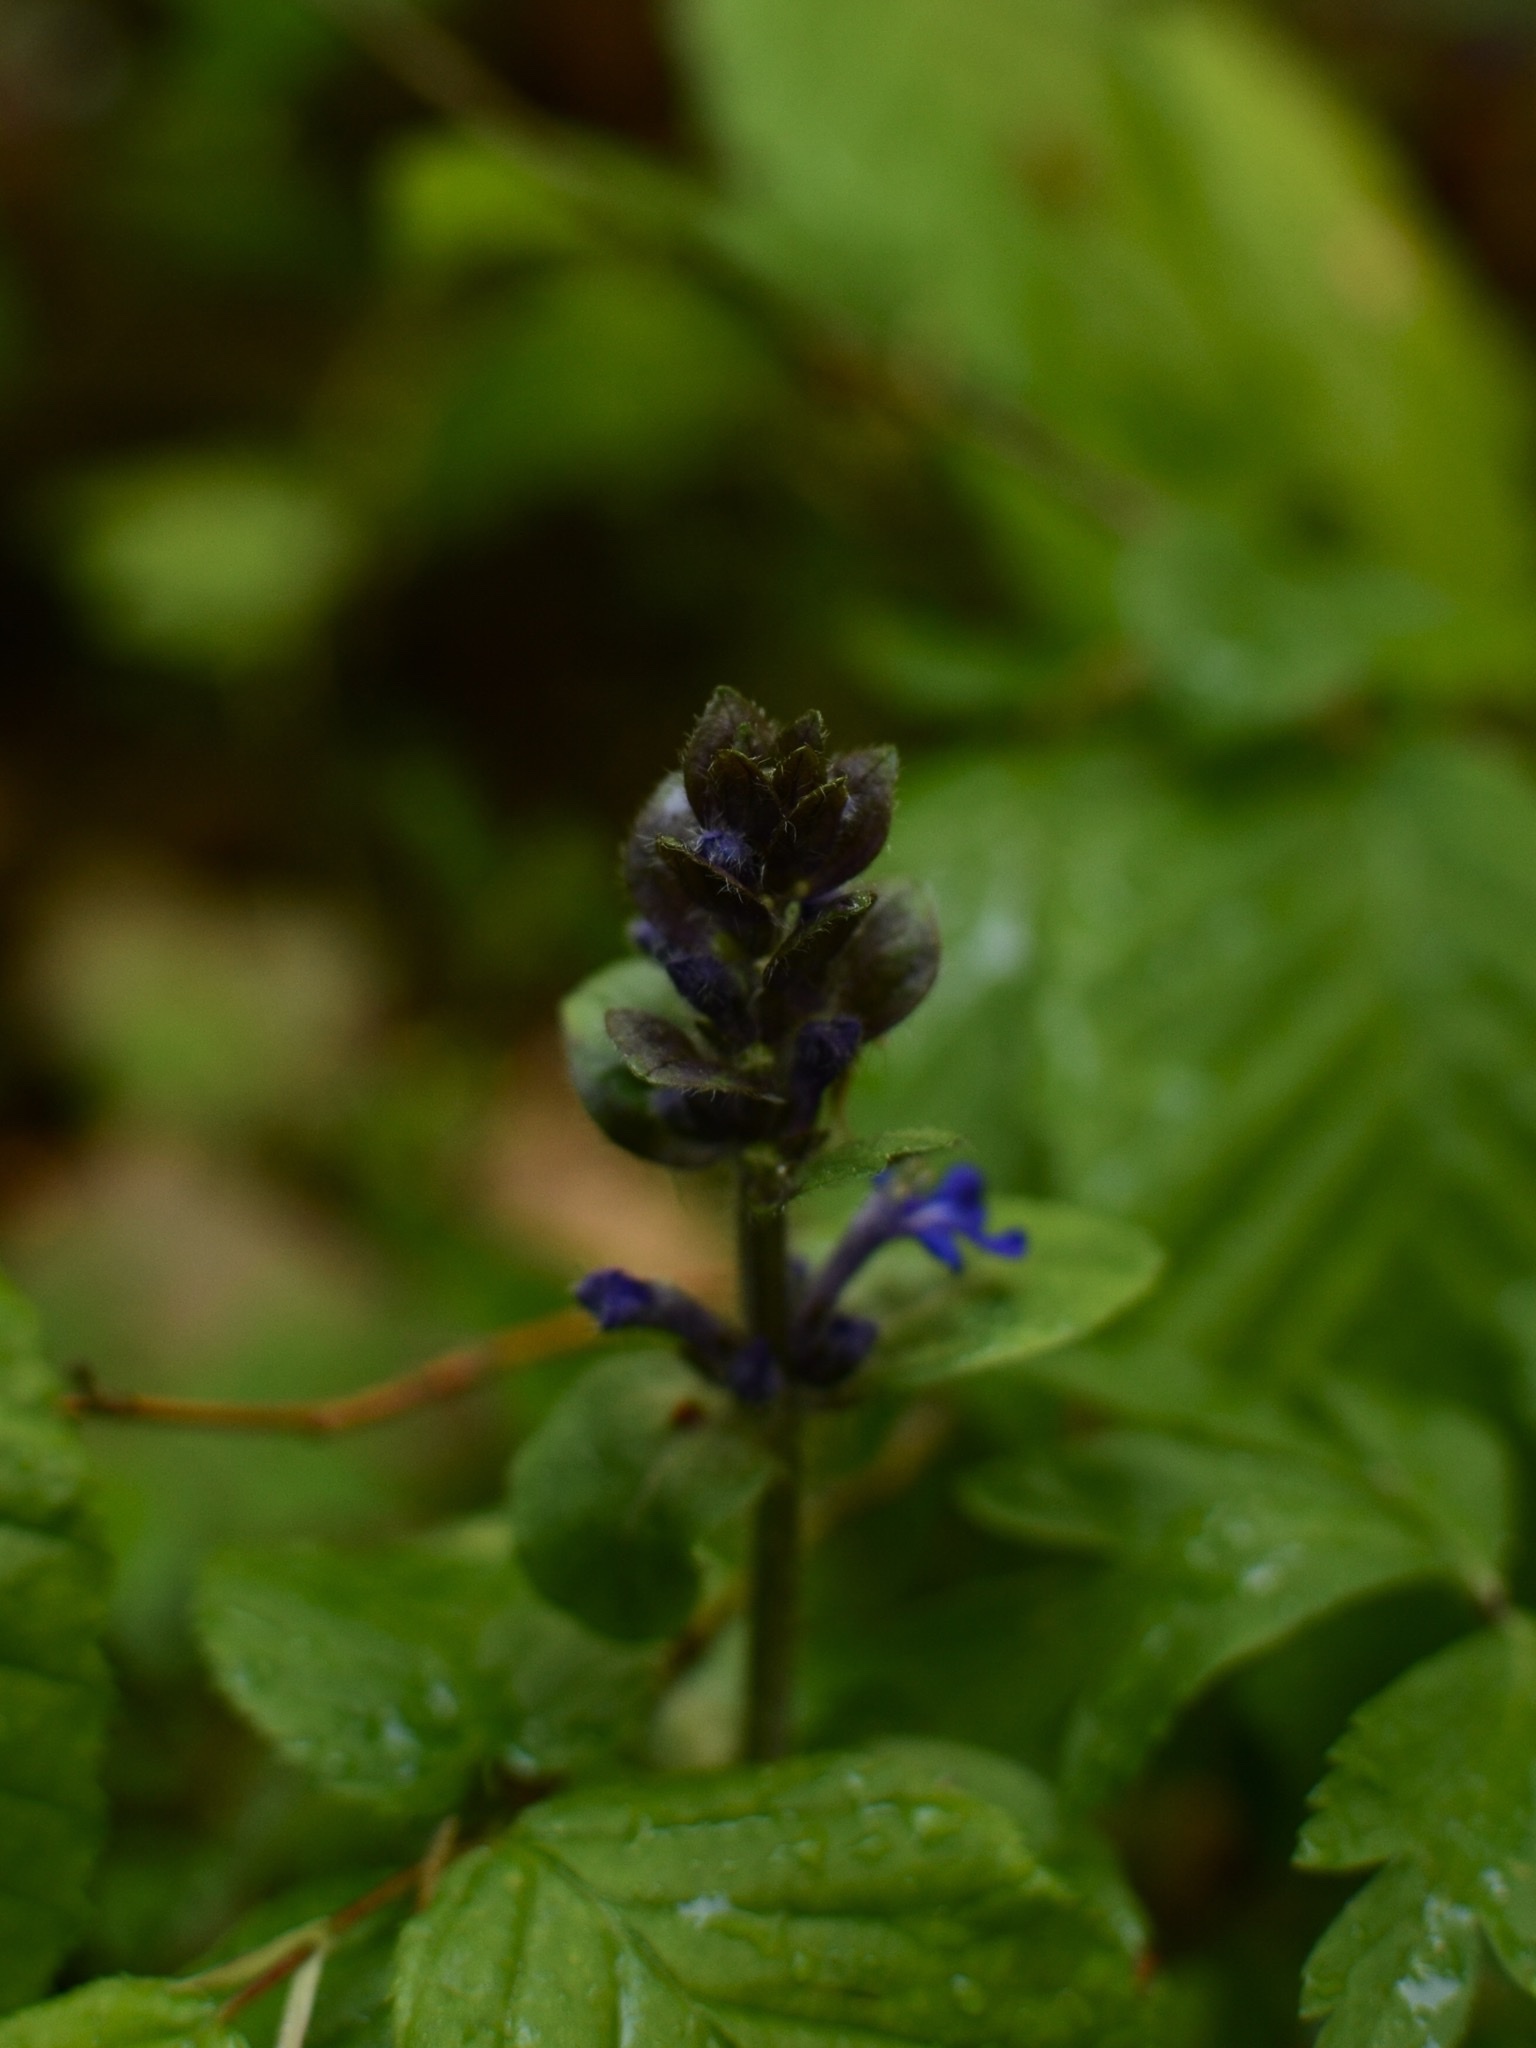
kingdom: Plantae
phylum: Tracheophyta
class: Magnoliopsida
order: Lamiales
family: Lamiaceae
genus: Ajuga
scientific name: Ajuga reptans
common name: Bugle
